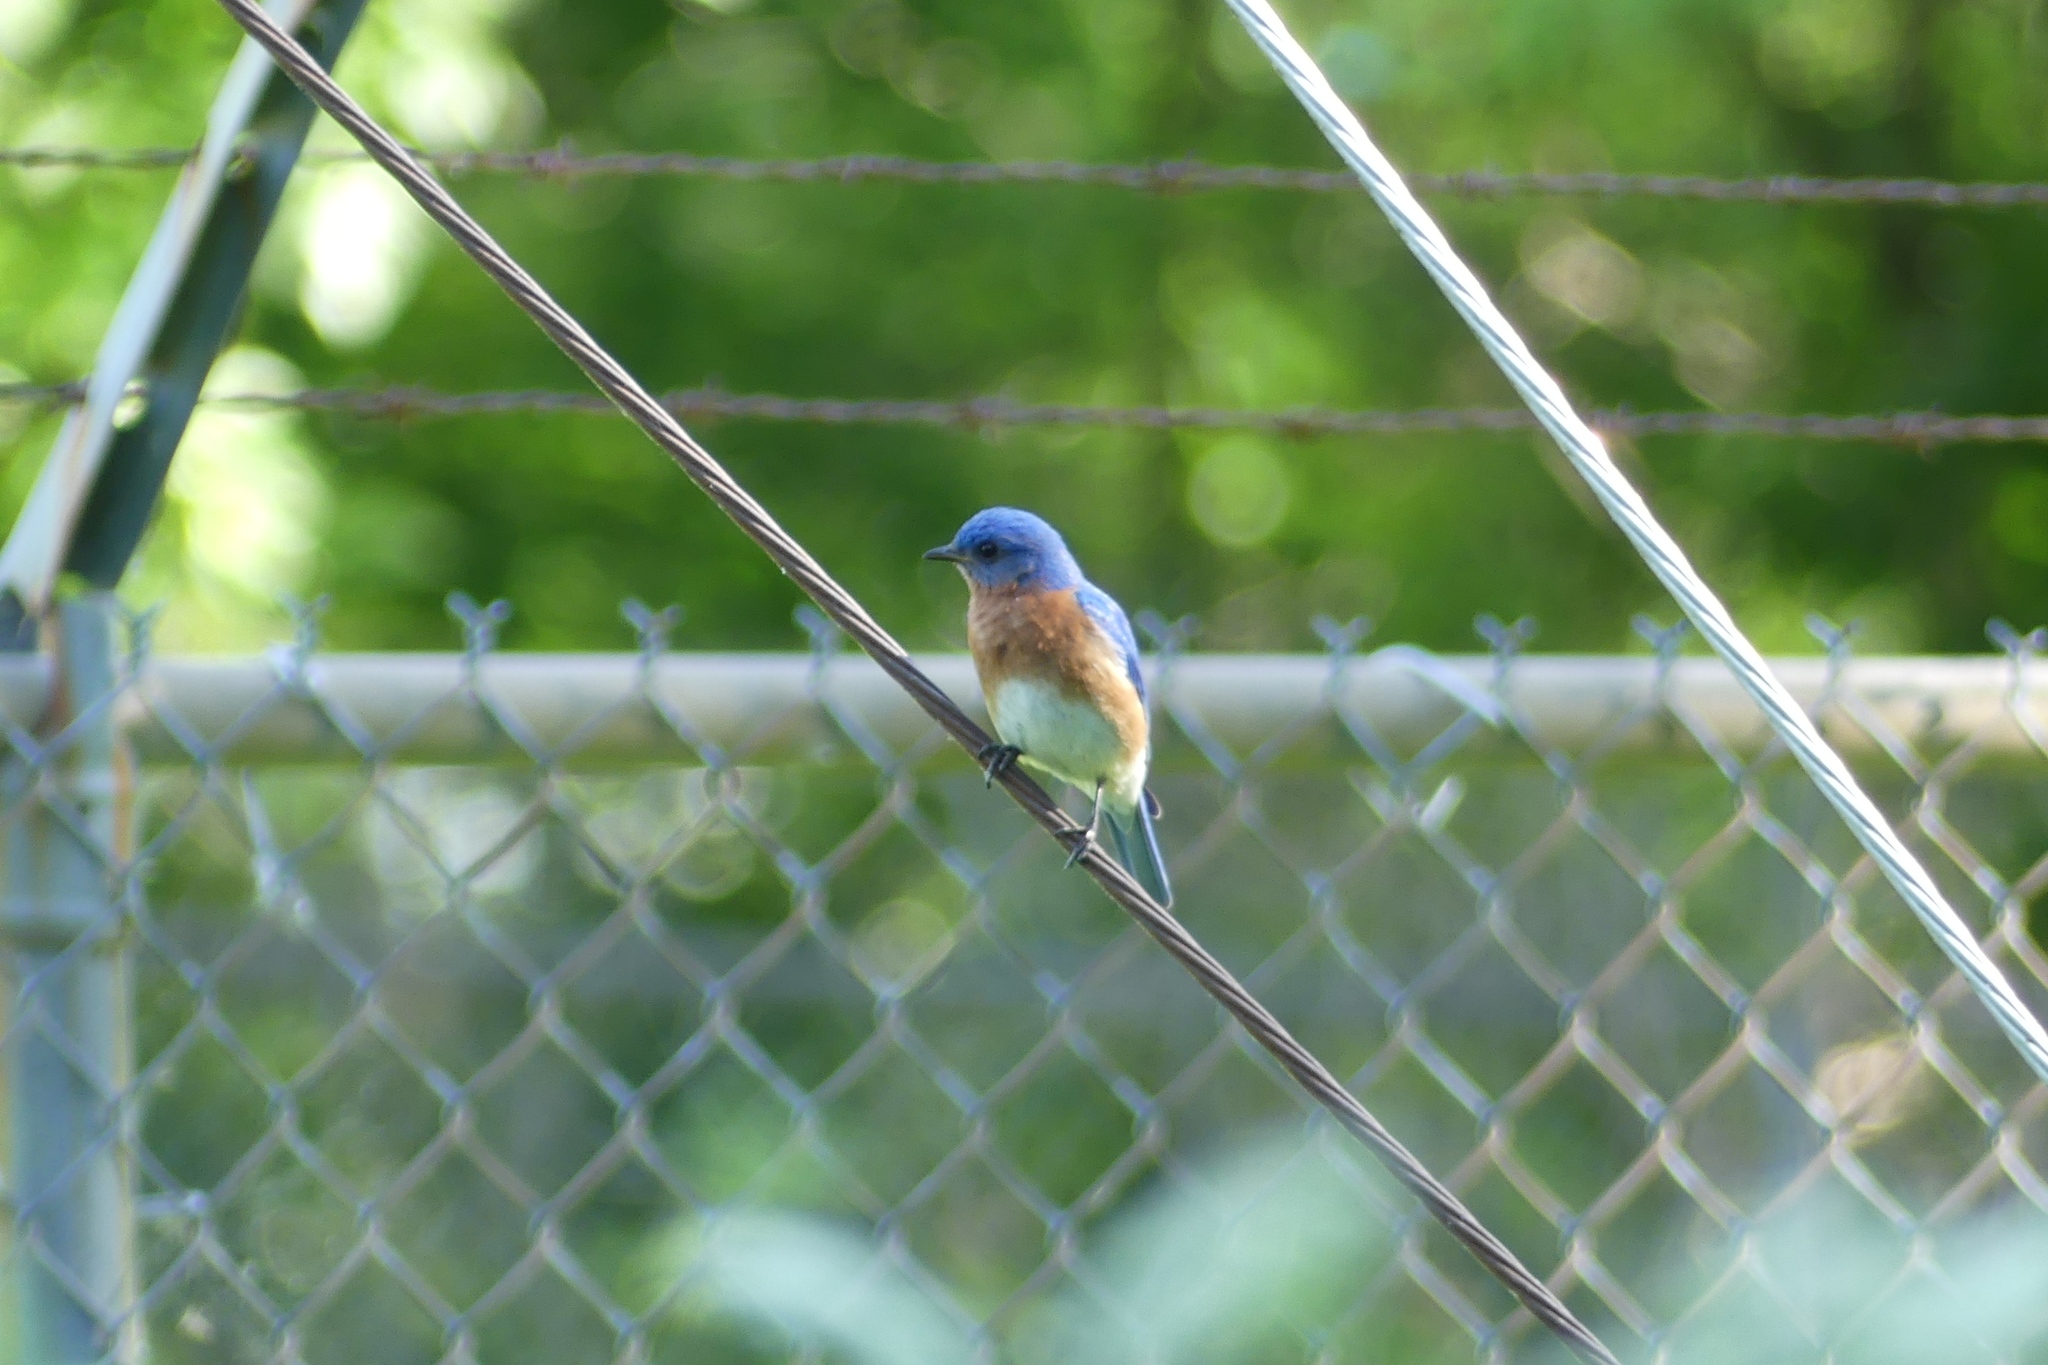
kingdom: Animalia
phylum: Chordata
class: Aves
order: Passeriformes
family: Turdidae
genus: Sialia
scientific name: Sialia sialis
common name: Eastern bluebird
